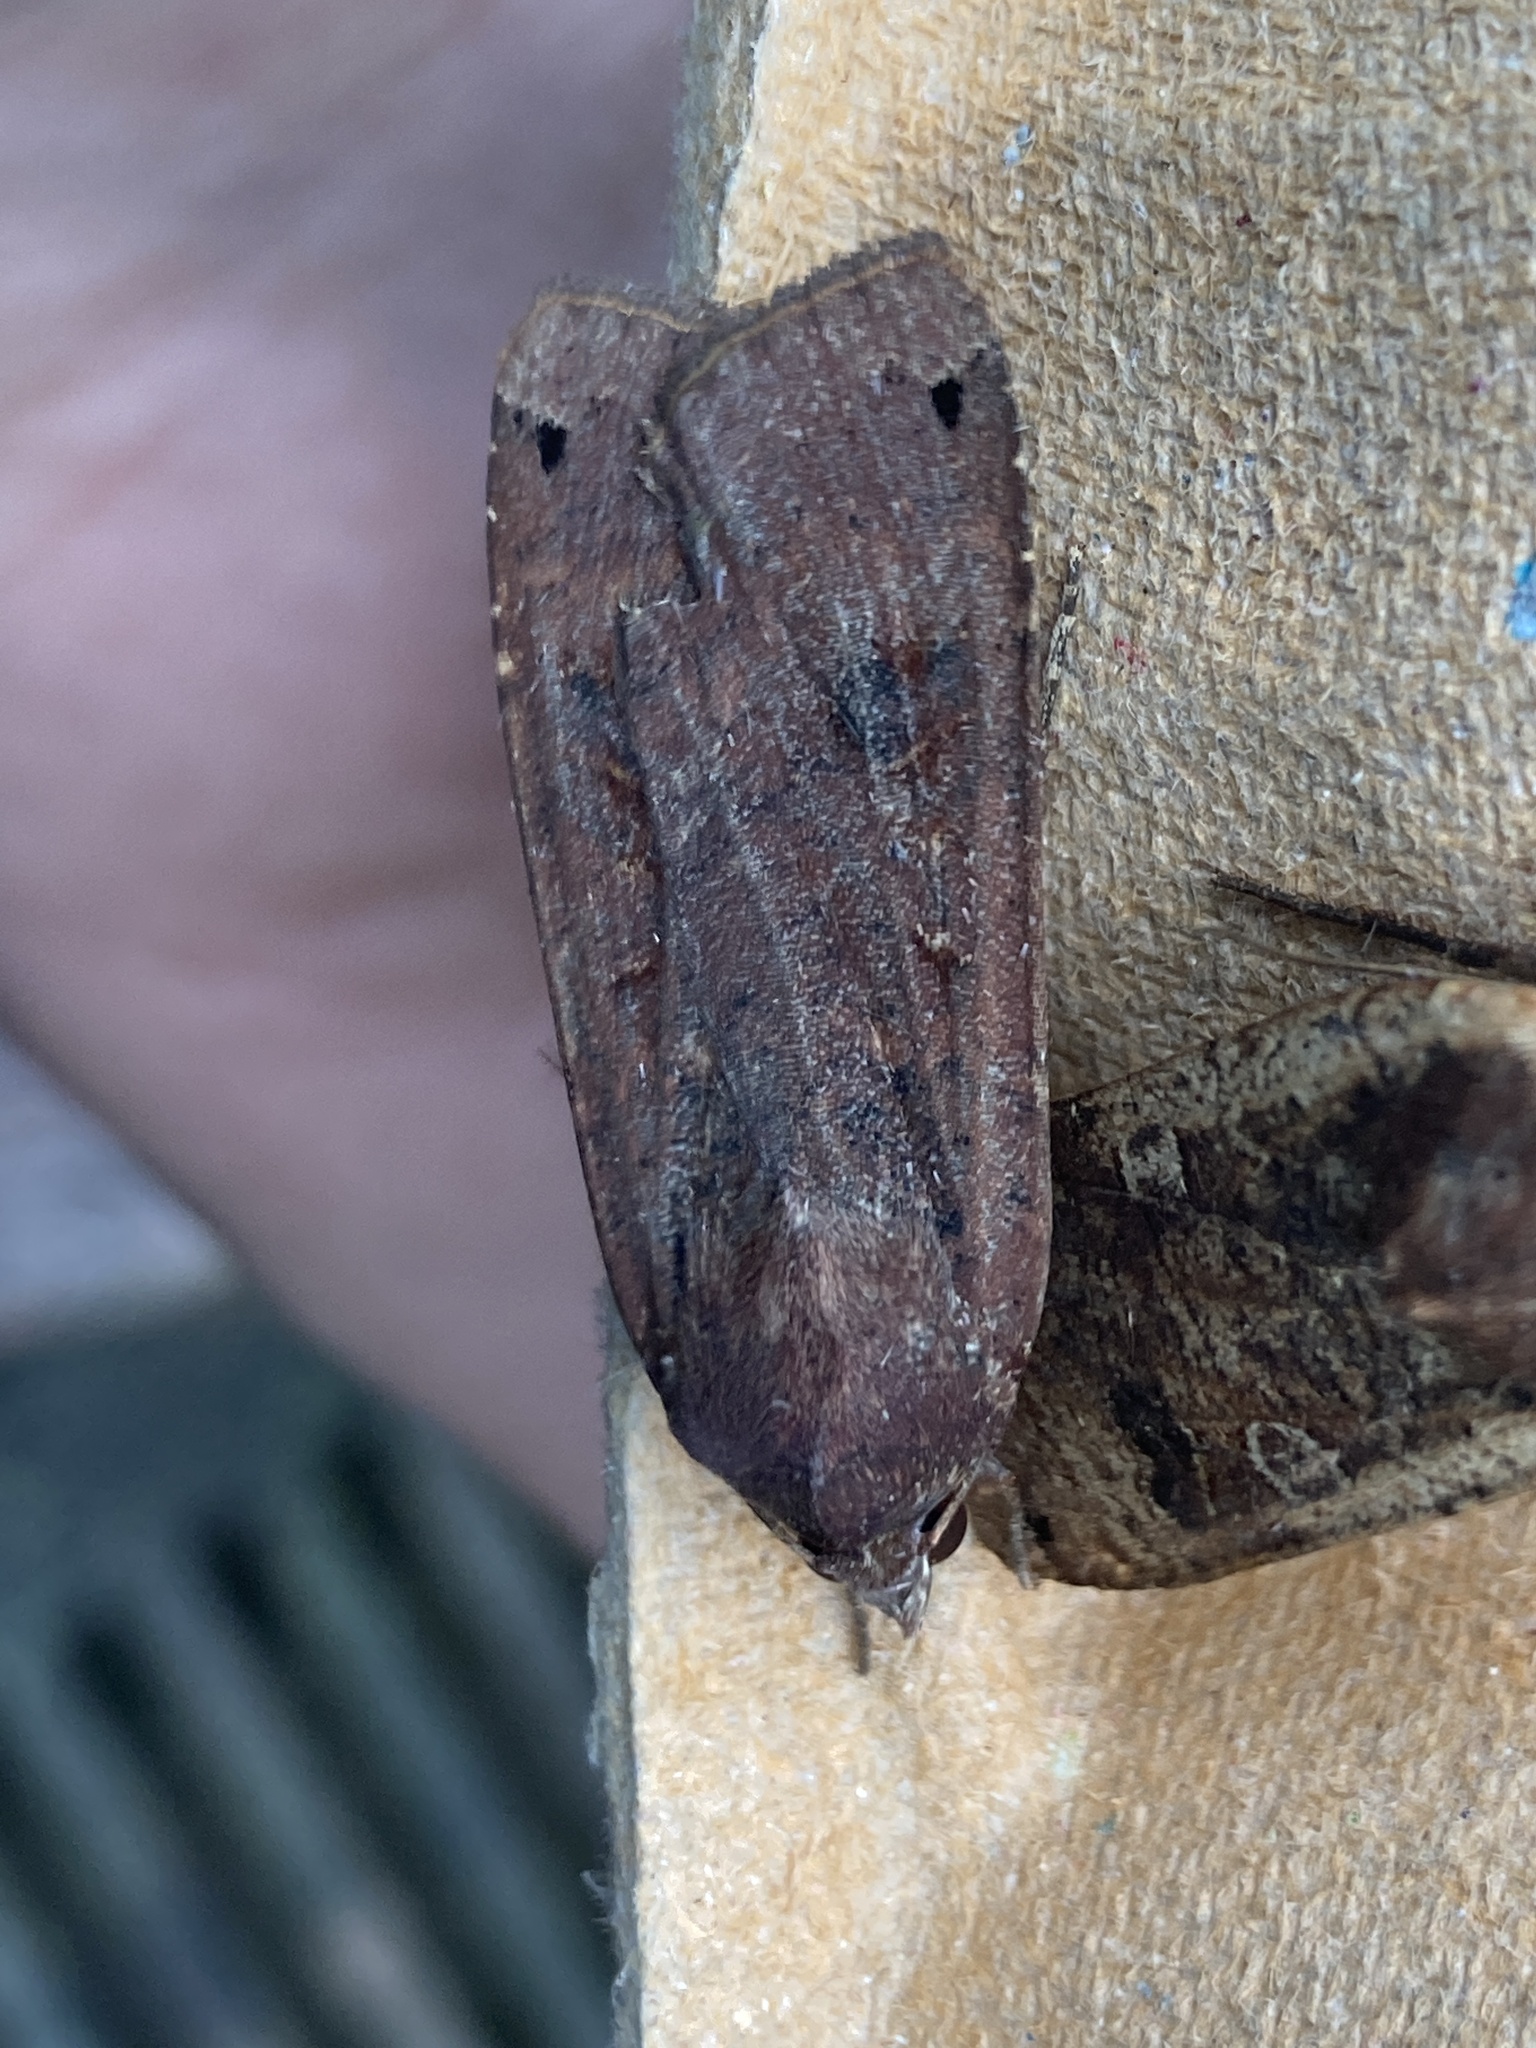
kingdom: Animalia
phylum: Arthropoda
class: Insecta
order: Lepidoptera
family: Noctuidae
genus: Noctua
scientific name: Noctua pronuba
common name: Large yellow underwing
